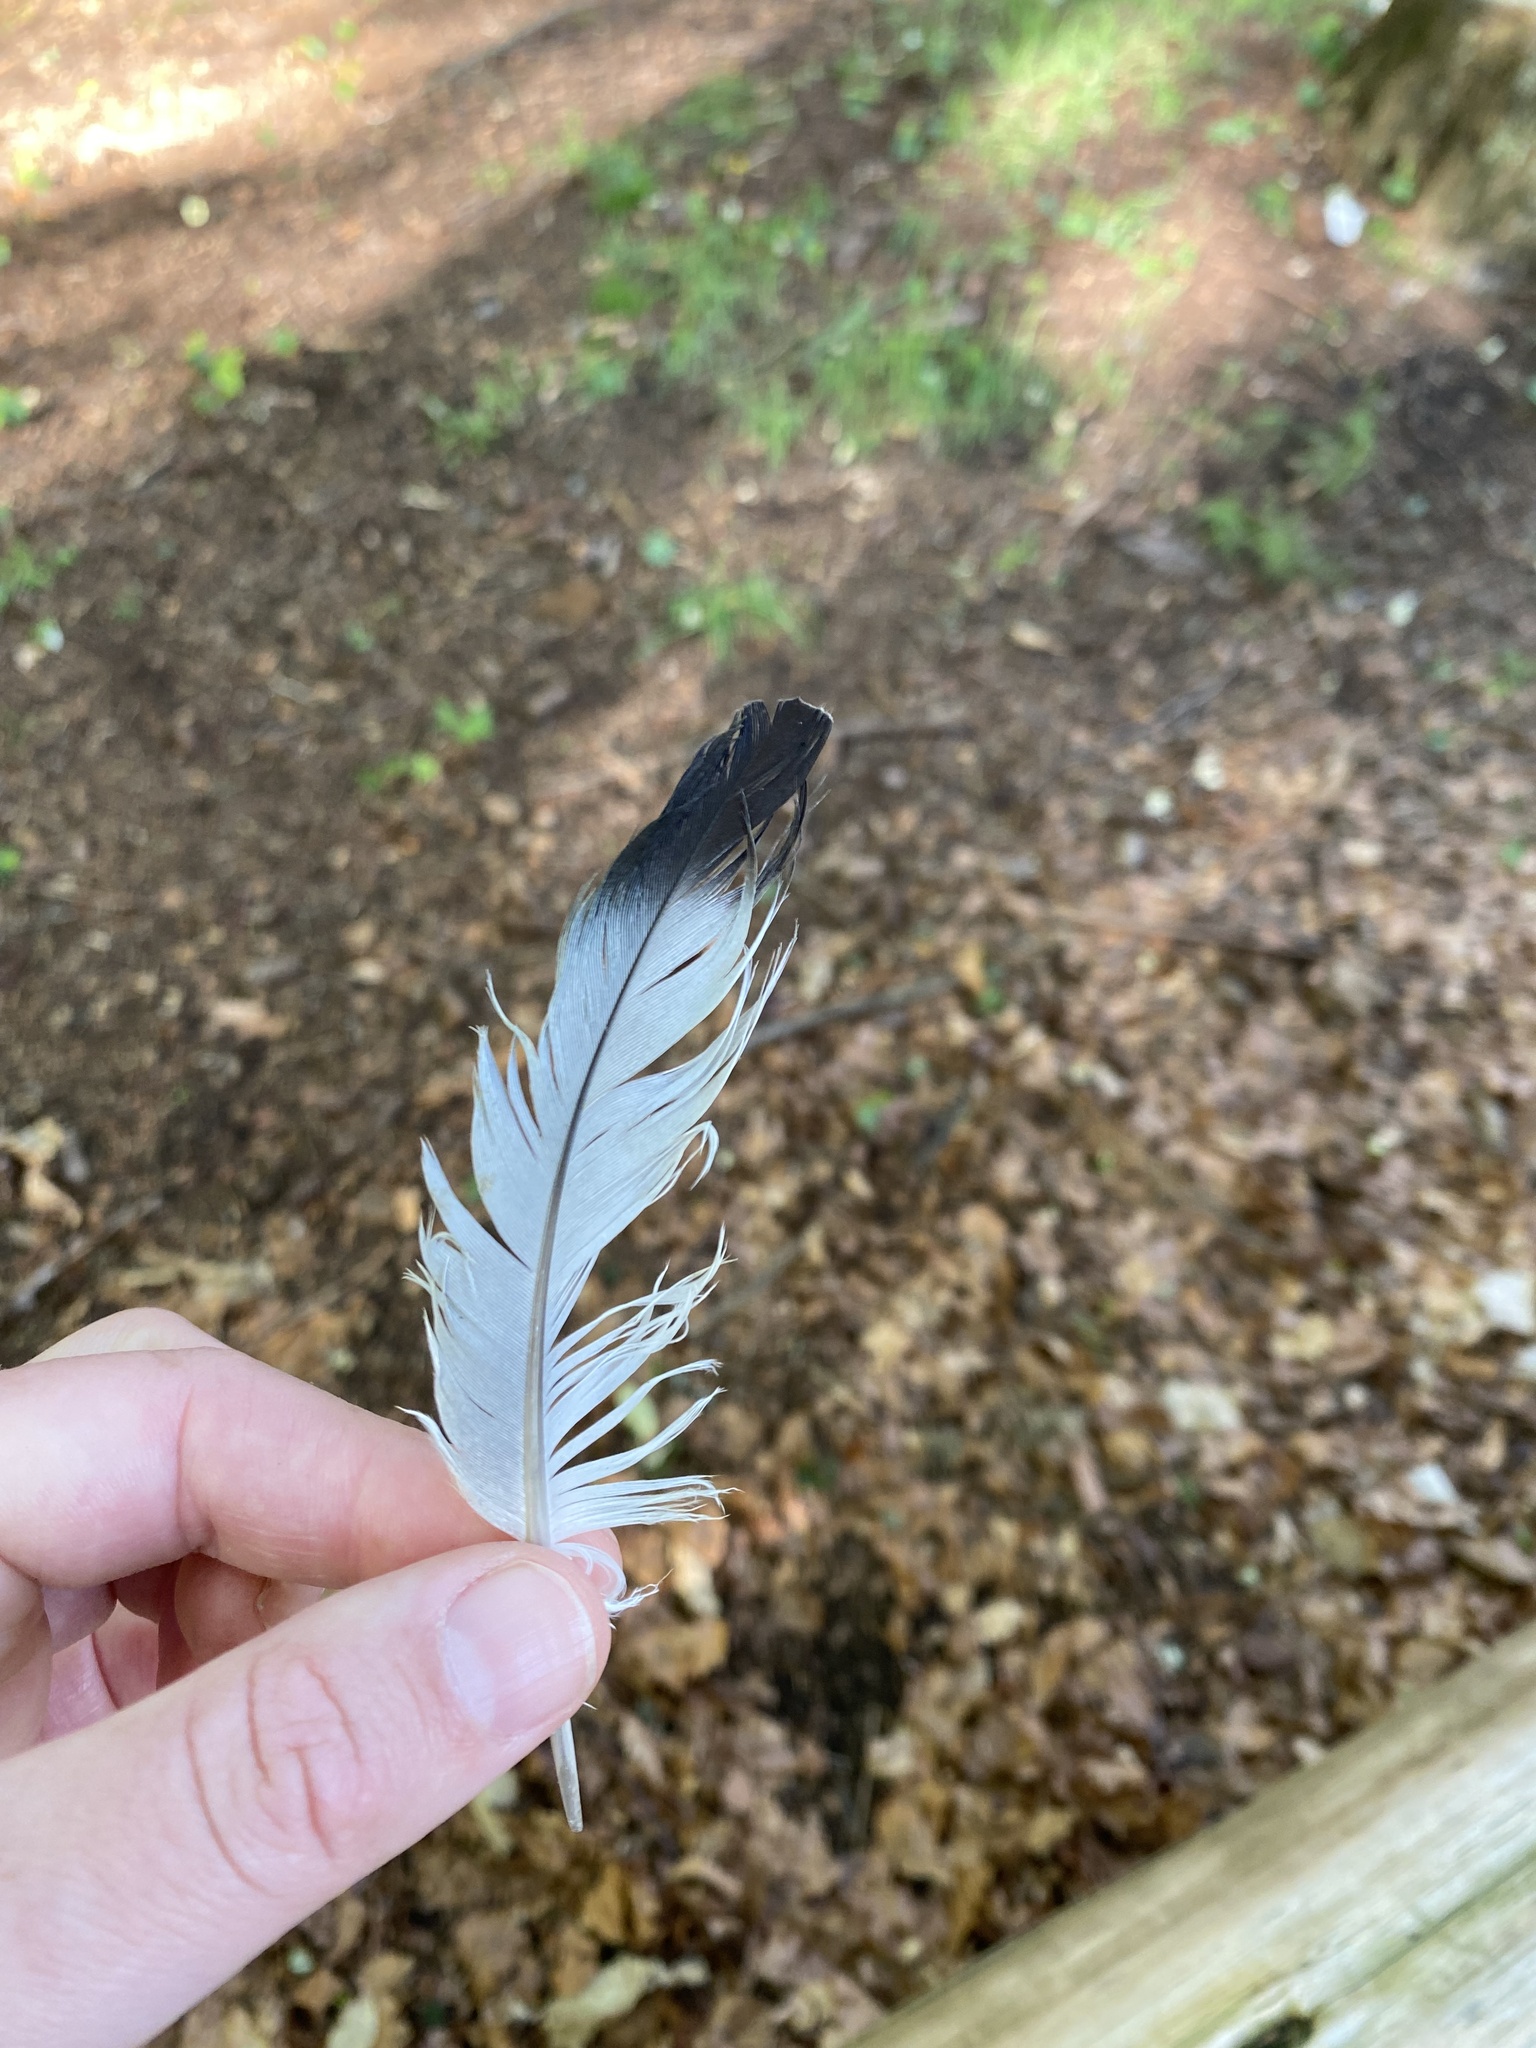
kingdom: Animalia
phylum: Chordata
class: Aves
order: Columbiformes
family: Columbidae
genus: Columba
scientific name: Columba livia
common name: Rock pigeon
